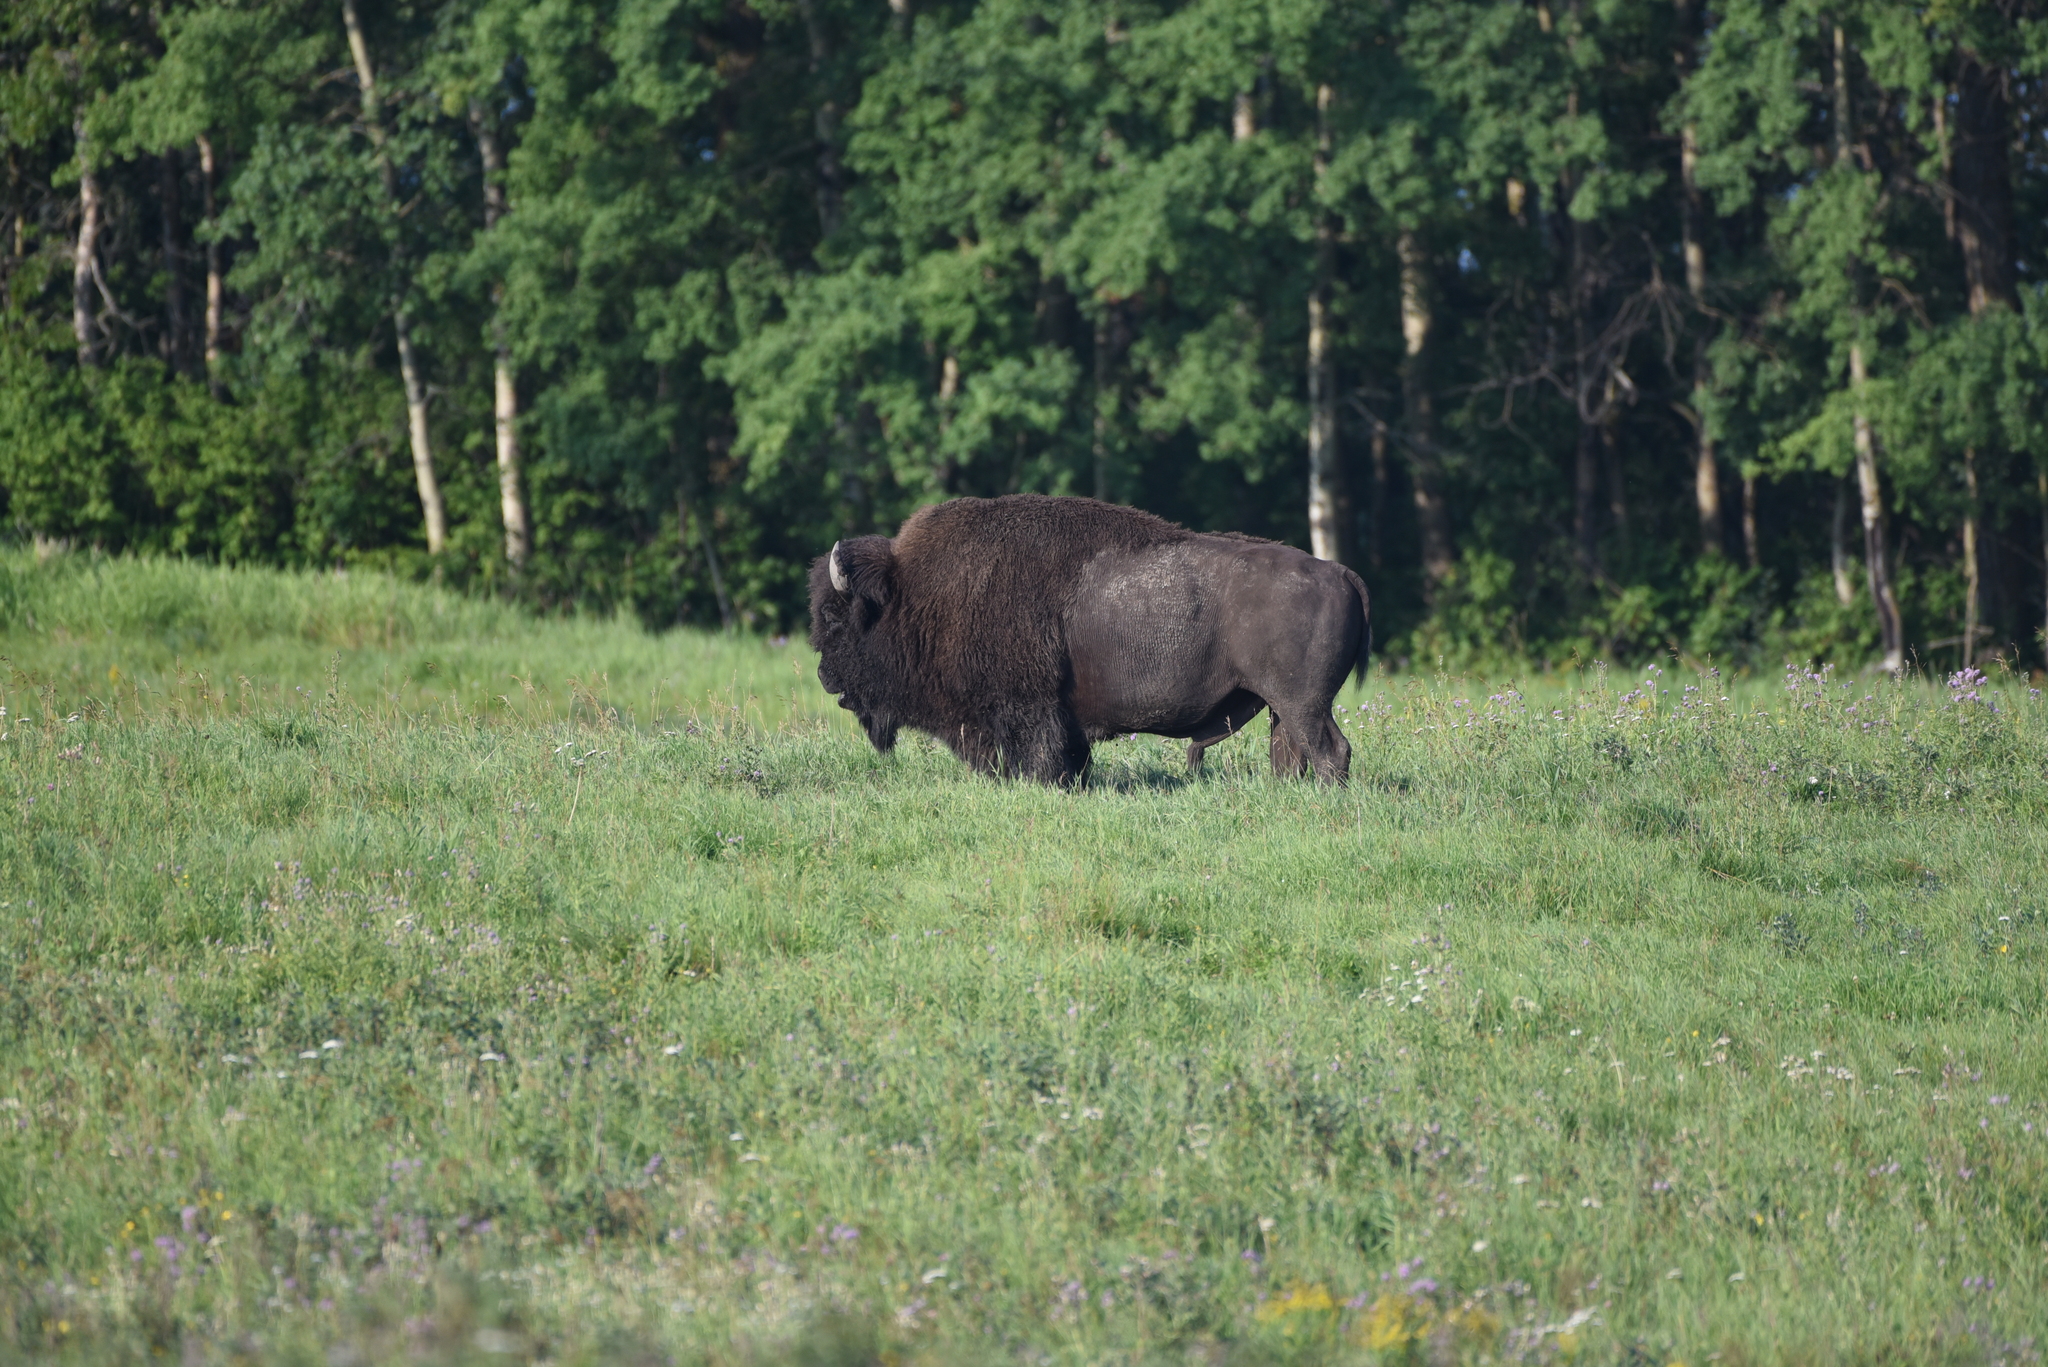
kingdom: Animalia
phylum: Chordata
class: Mammalia
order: Artiodactyla
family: Bovidae
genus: Bison
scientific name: Bison bison
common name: American bison
